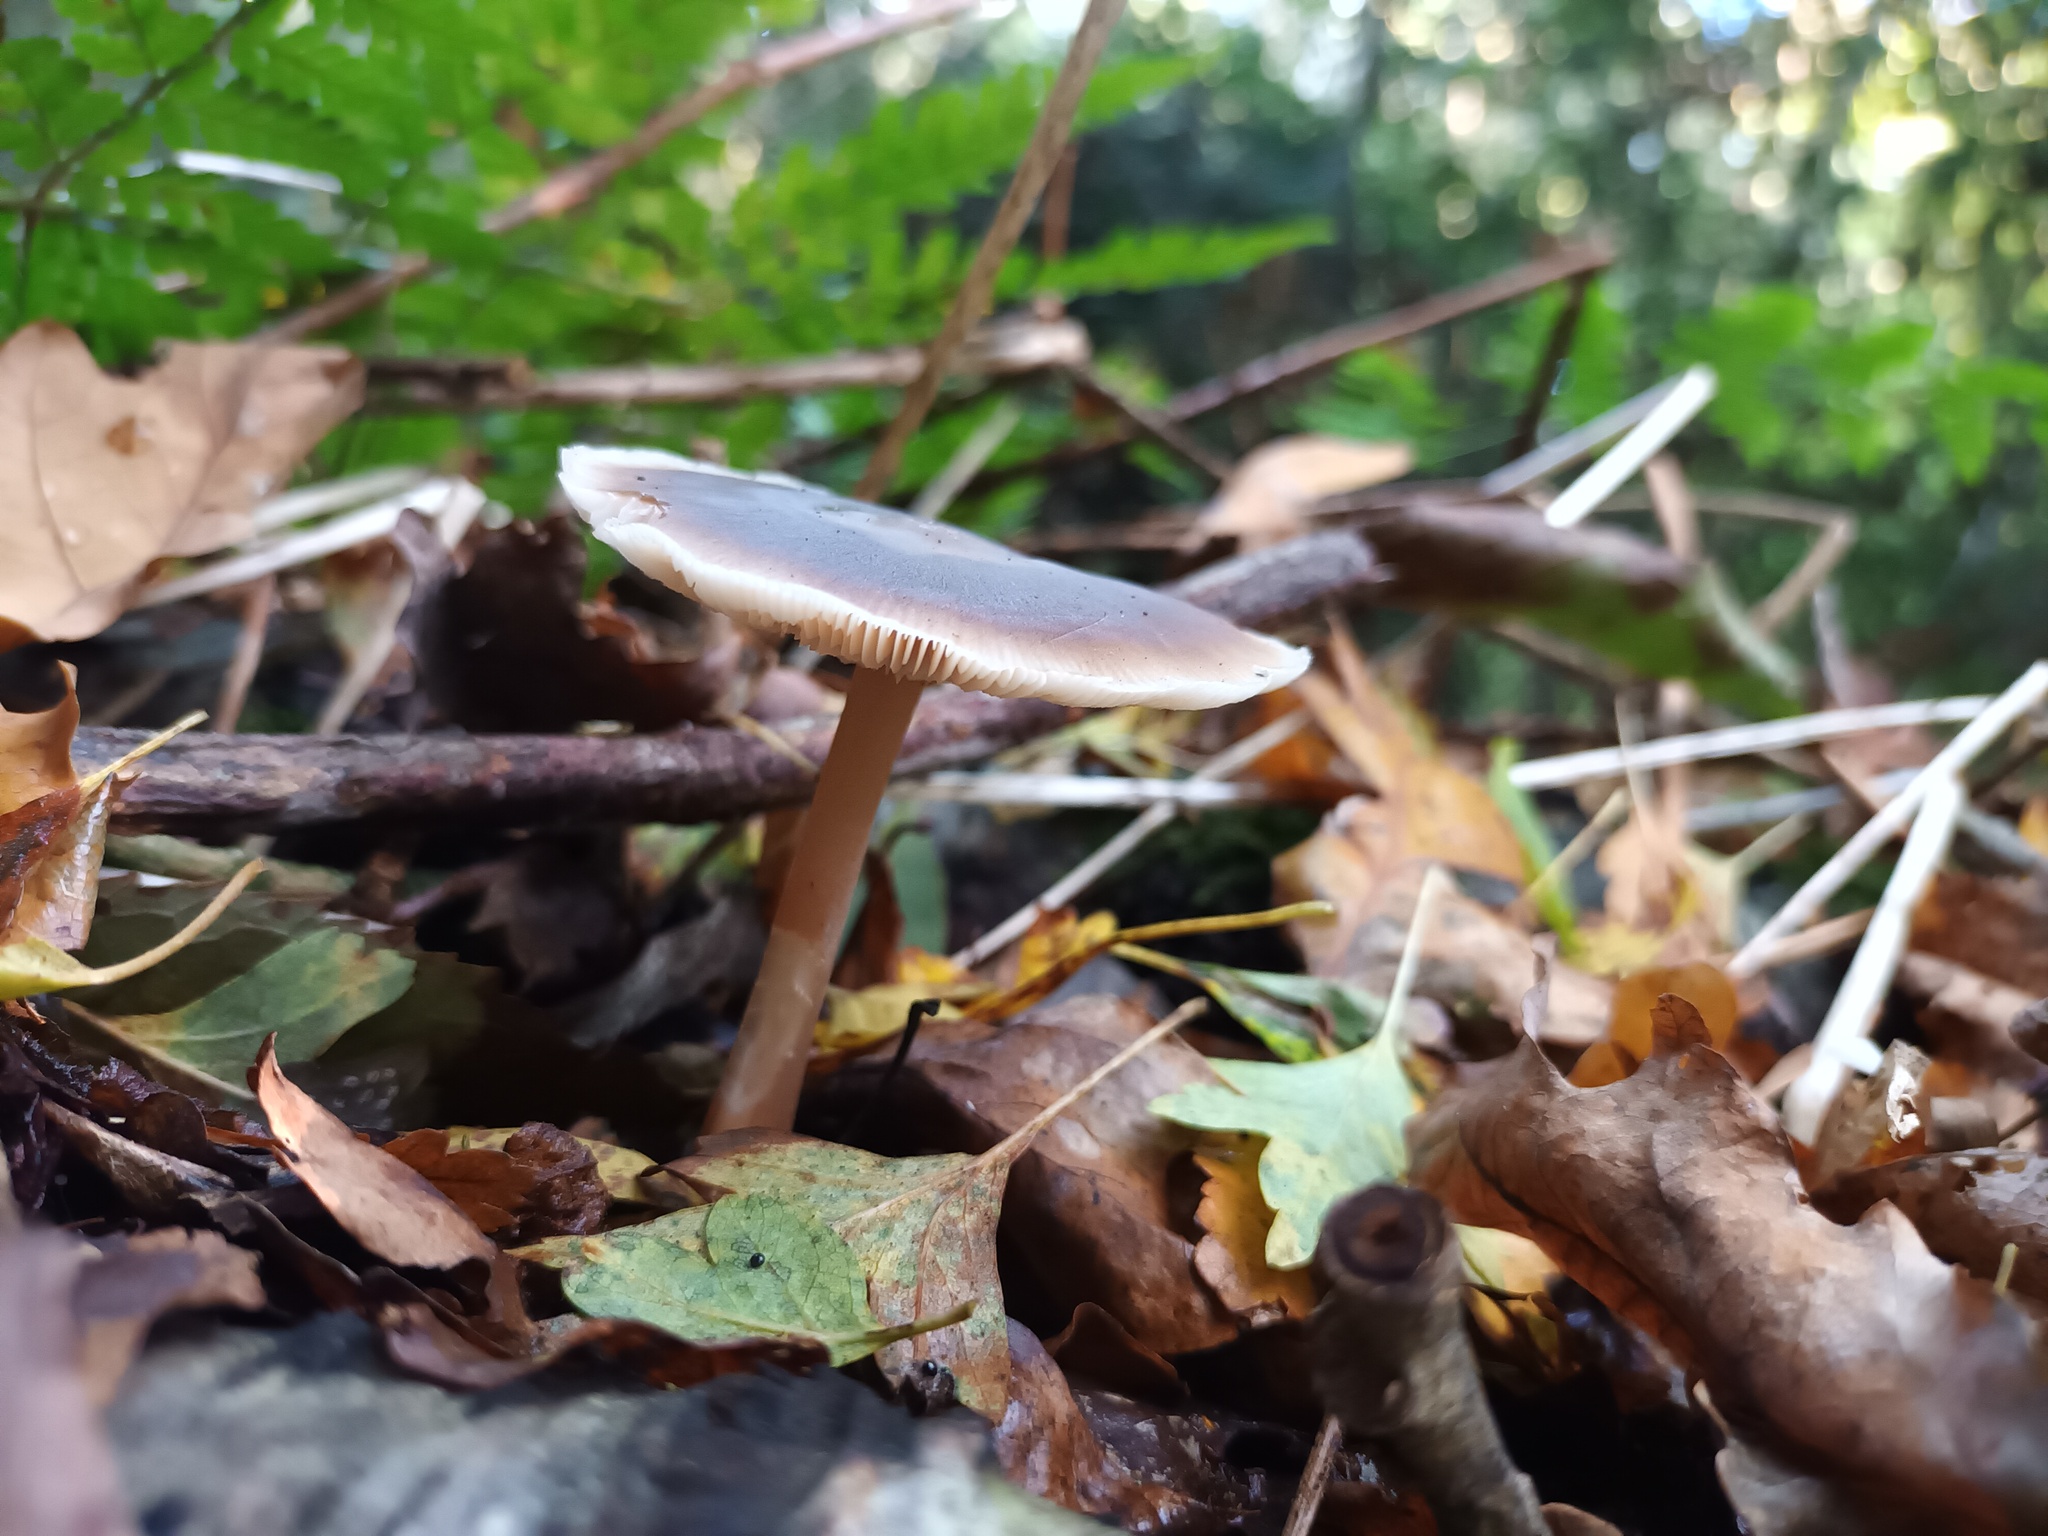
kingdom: Fungi
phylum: Basidiomycota
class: Agaricomycetes
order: Agaricales
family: Omphalotaceae
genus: Rhodocollybia
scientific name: Rhodocollybia butyracea
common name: Butter cap
